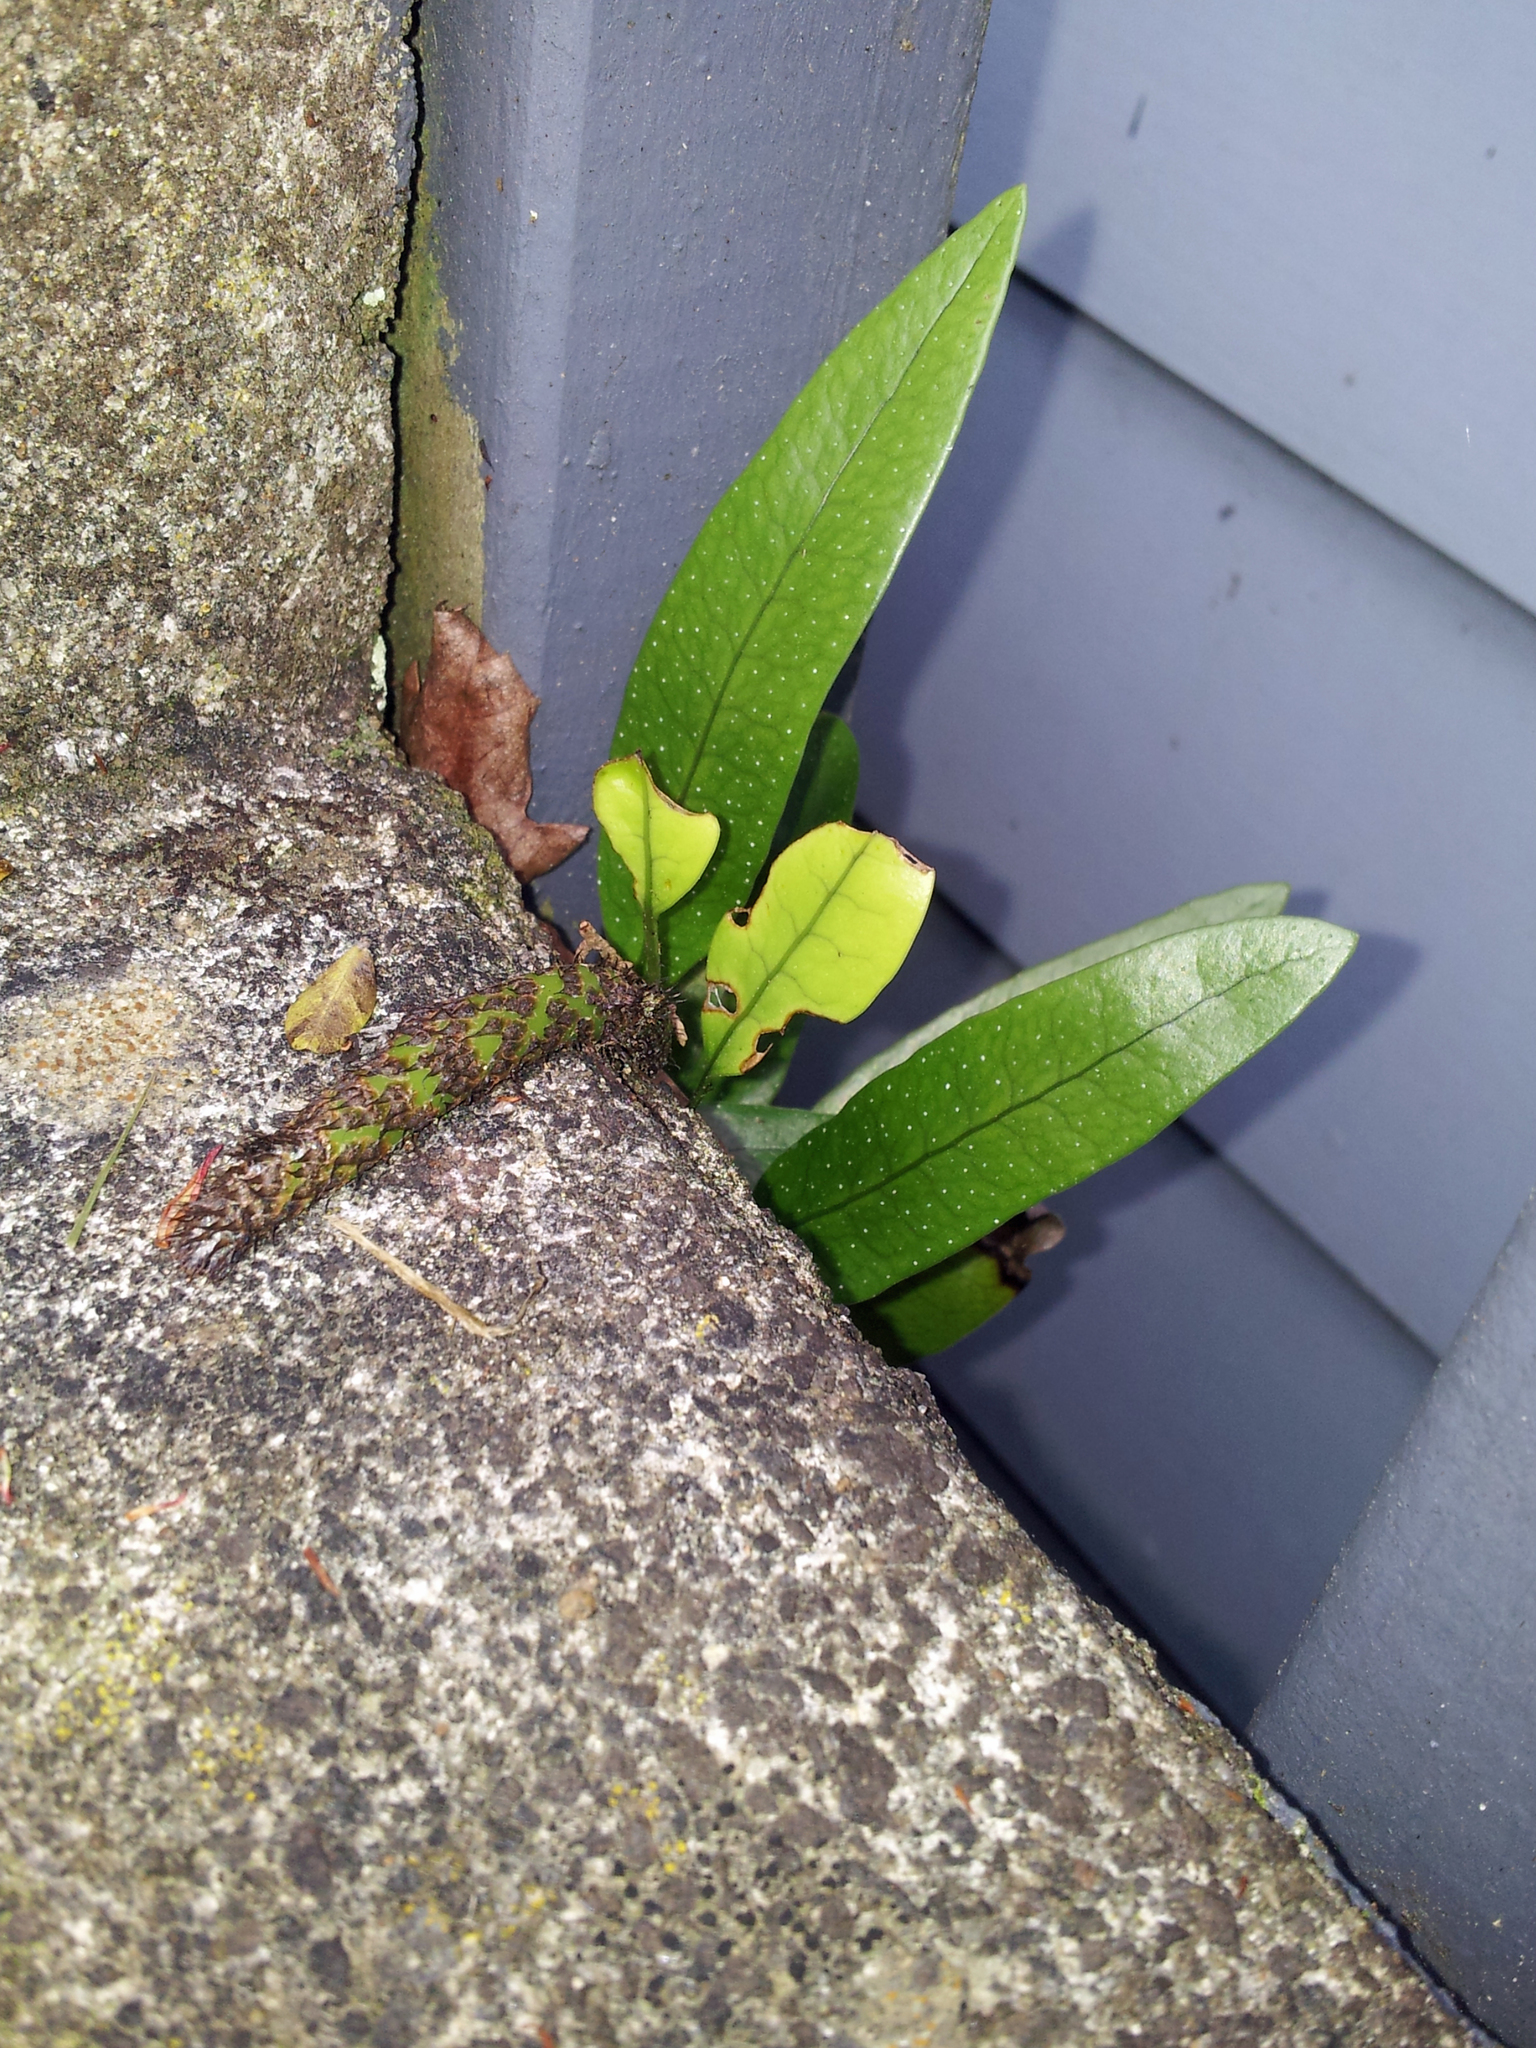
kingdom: Plantae
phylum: Tracheophyta
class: Polypodiopsida
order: Polypodiales
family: Polypodiaceae
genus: Lecanopteris
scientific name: Lecanopteris pustulata
